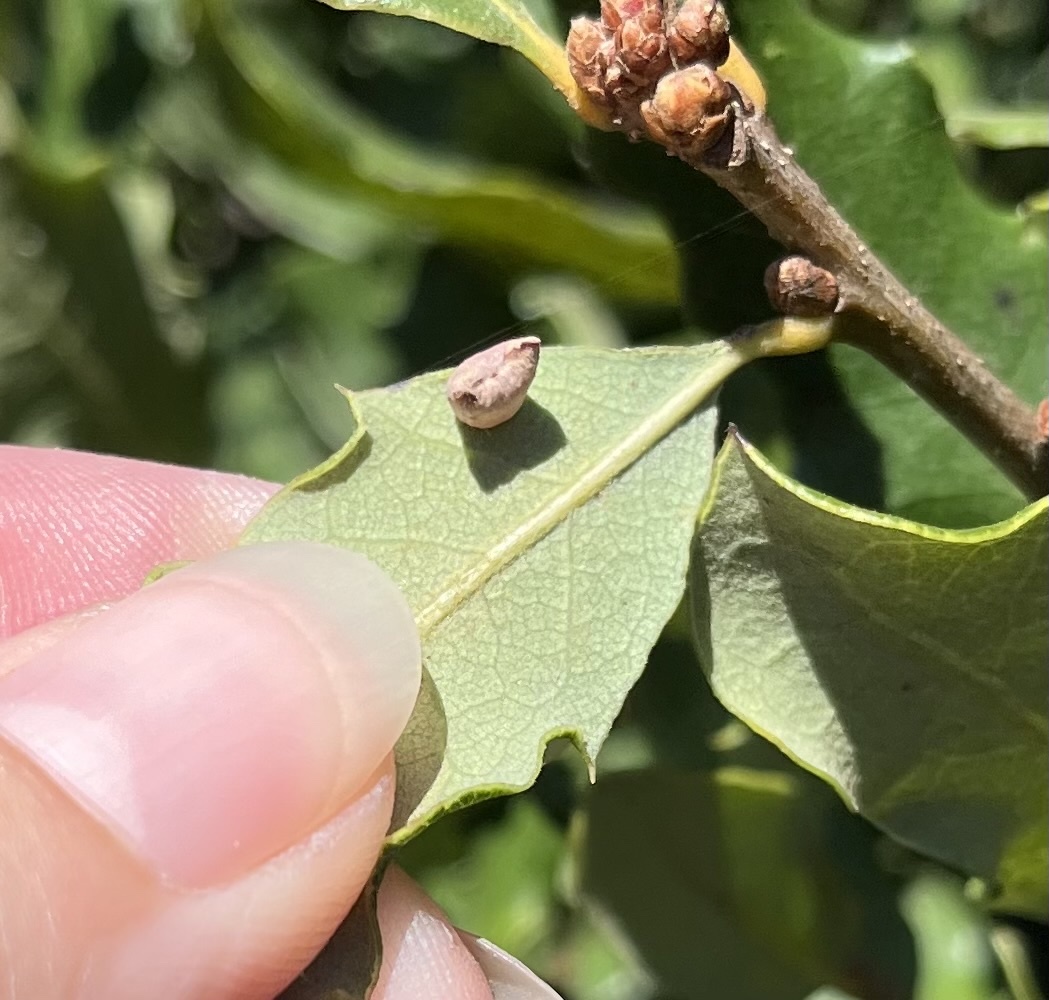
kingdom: Animalia
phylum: Arthropoda
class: Insecta
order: Hymenoptera
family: Cynipidae
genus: Andricus
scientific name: Andricus
